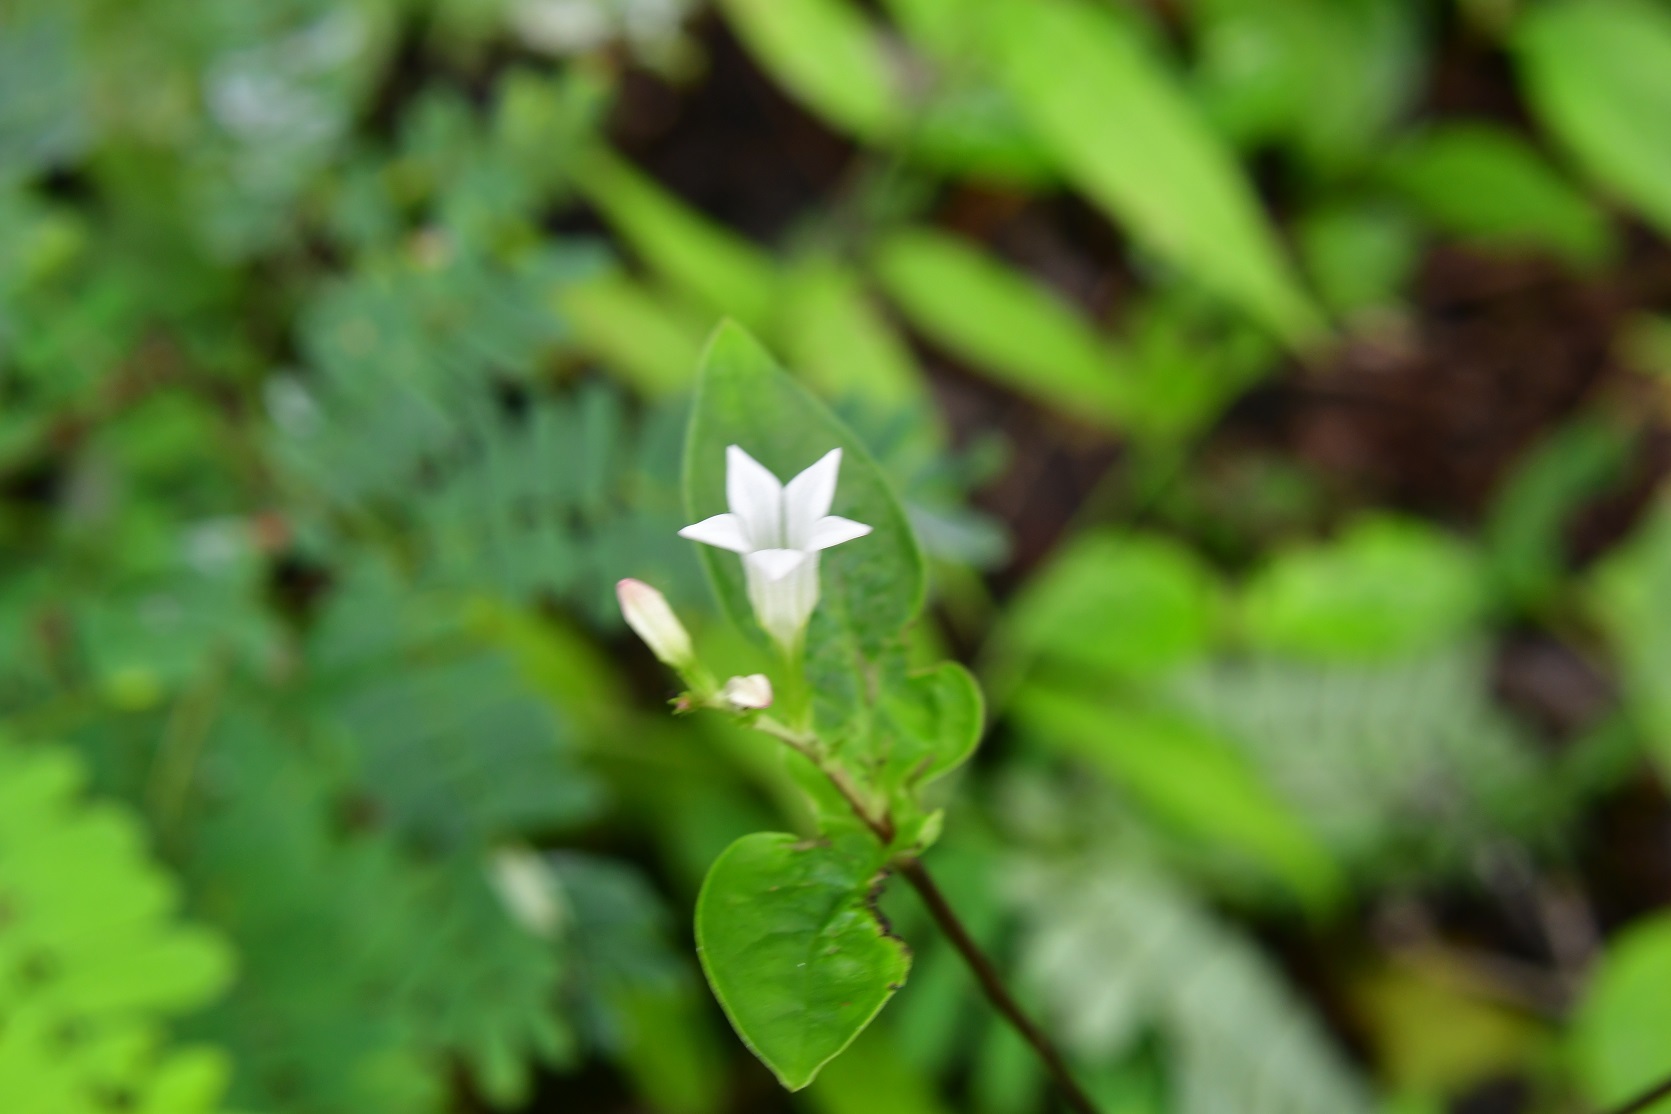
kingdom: Plantae
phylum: Tracheophyta
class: Magnoliopsida
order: Gentianales
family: Loganiaceae
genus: Spigelia
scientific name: Spigelia humboldtiana
